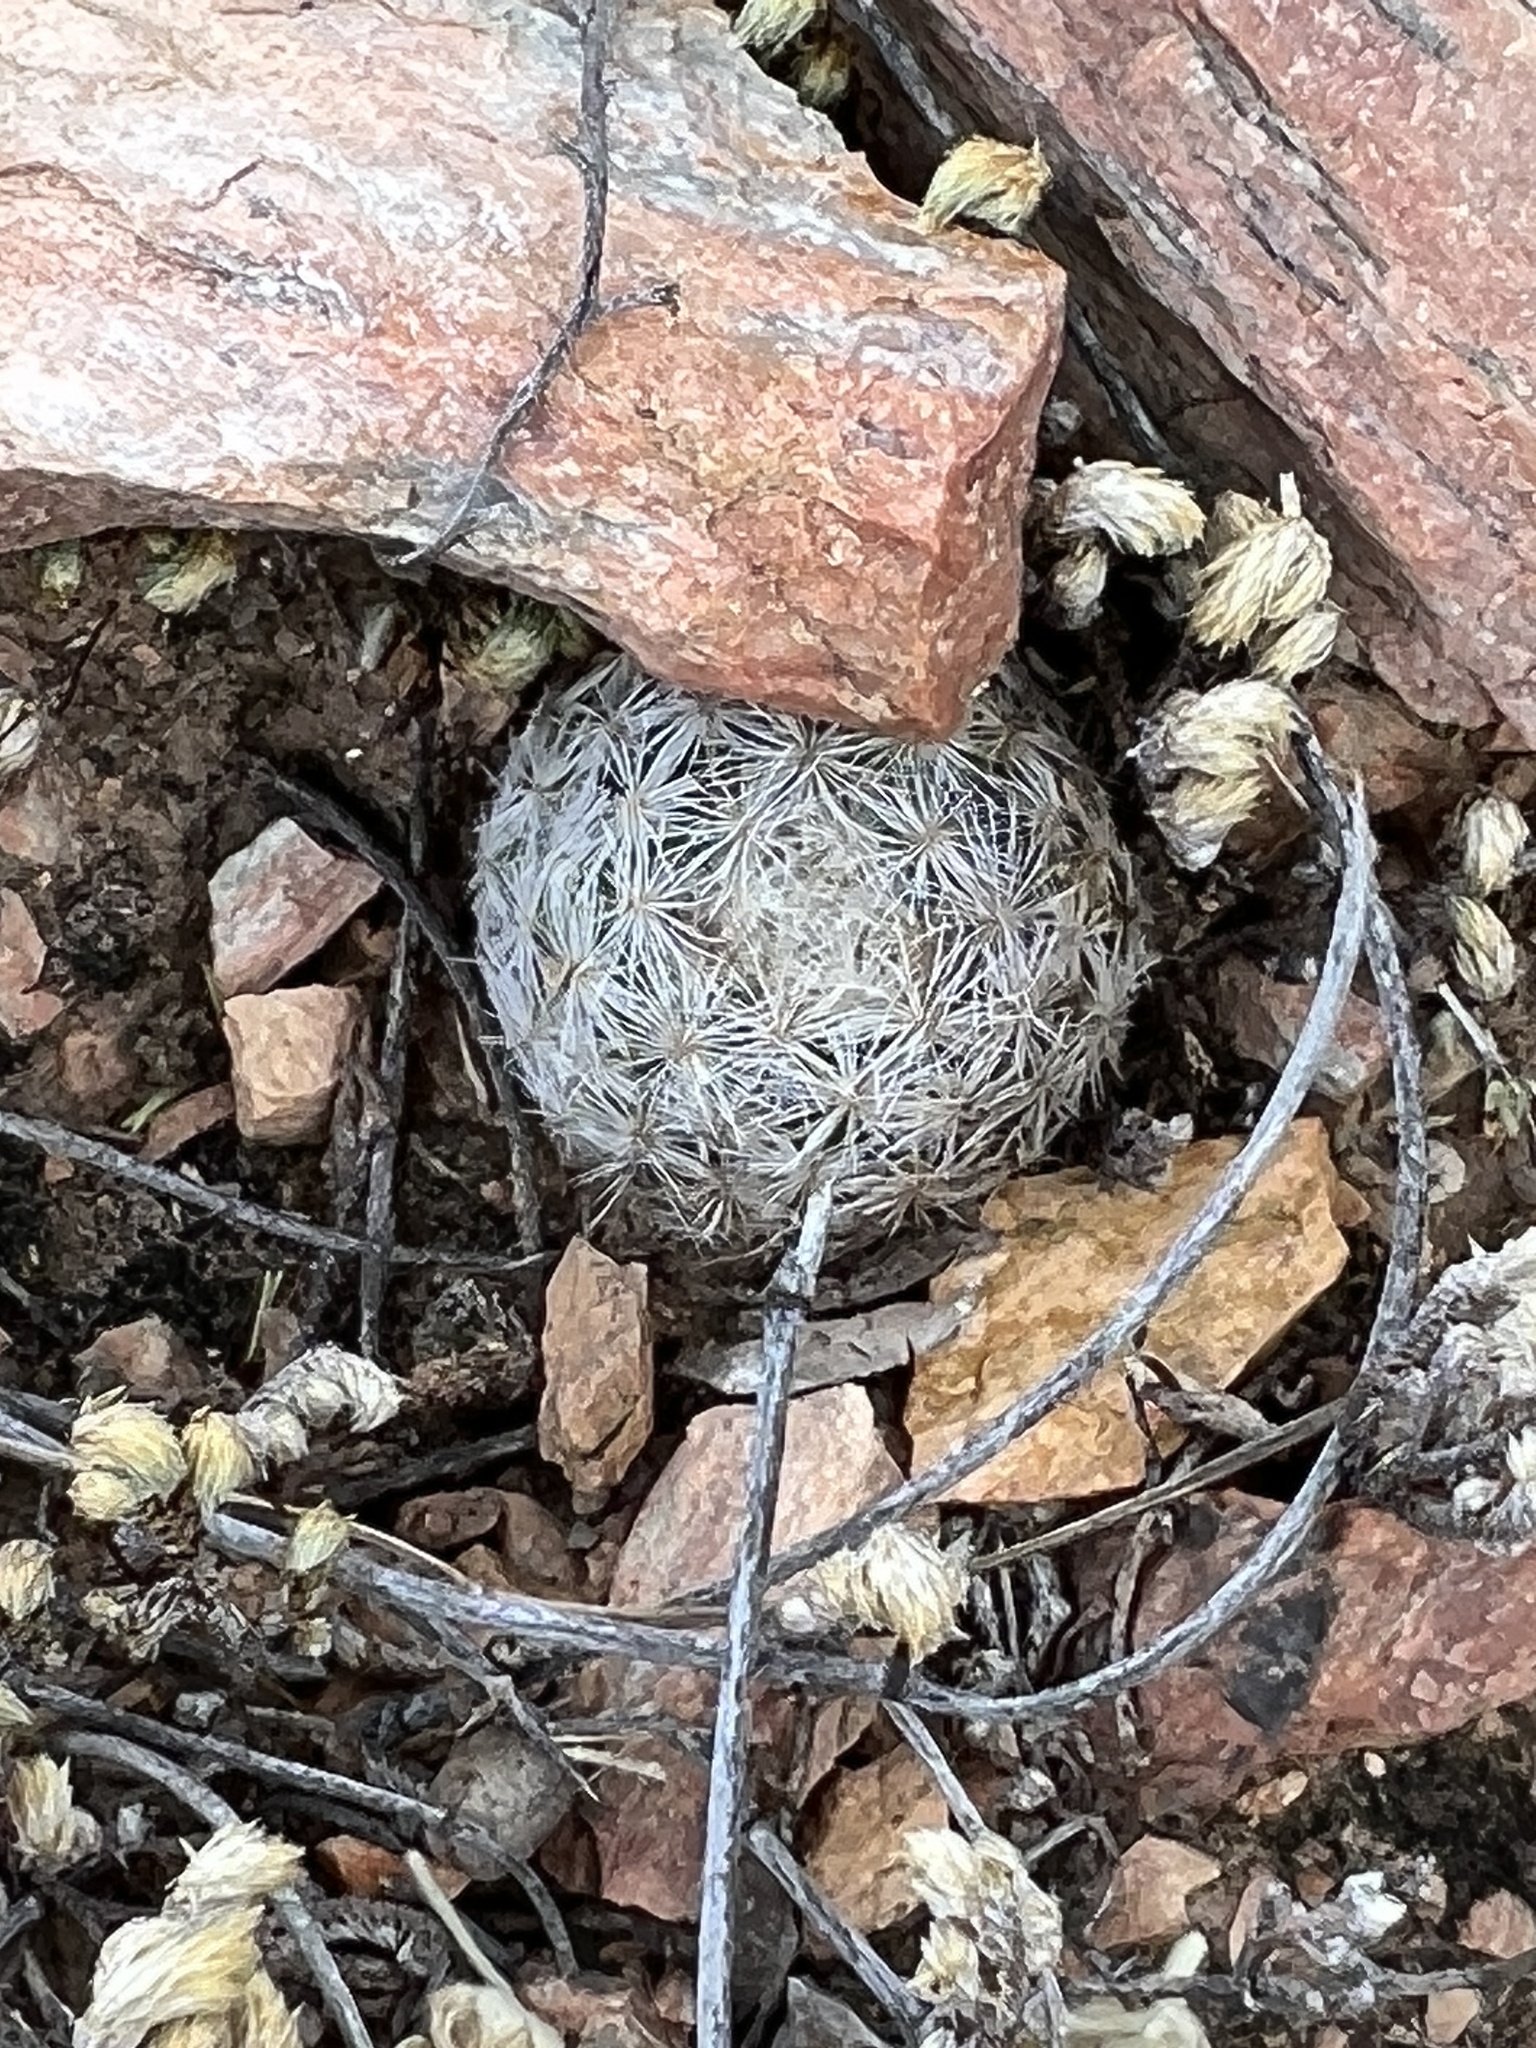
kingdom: Plantae
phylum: Tracheophyta
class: Magnoliopsida
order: Caryophyllales
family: Cactaceae
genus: Mammillaria
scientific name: Mammillaria lasiacantha
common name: Lace-spine nipple cactus
